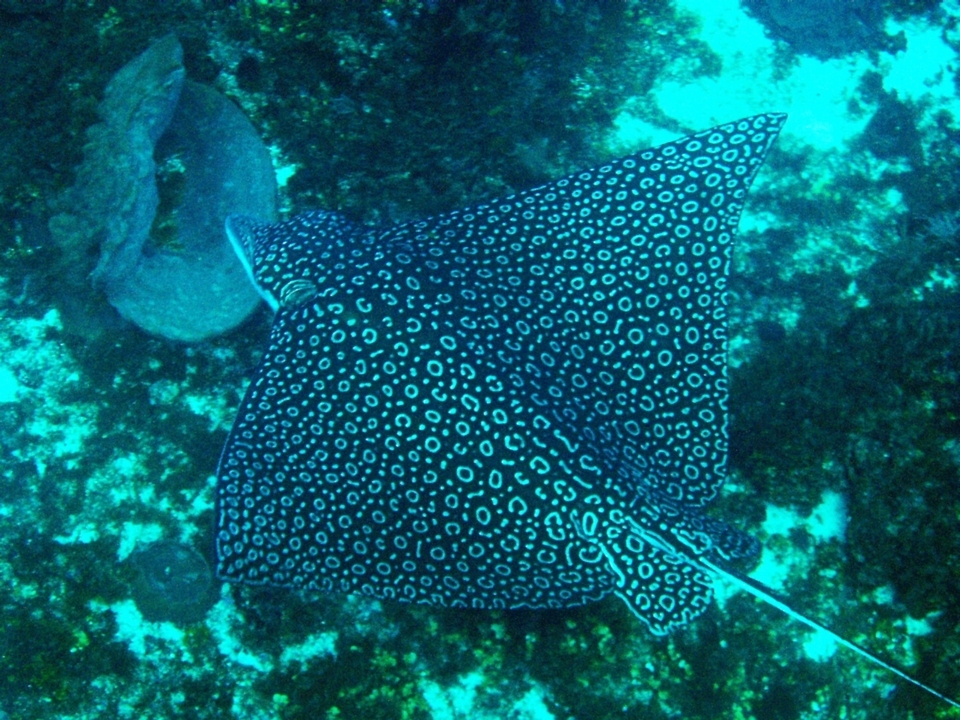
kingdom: Animalia
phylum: Chordata
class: Elasmobranchii
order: Myliobatiformes
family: Myliobatidae
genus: Aetobatus
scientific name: Aetobatus narinari
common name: Spotted eagle ray
